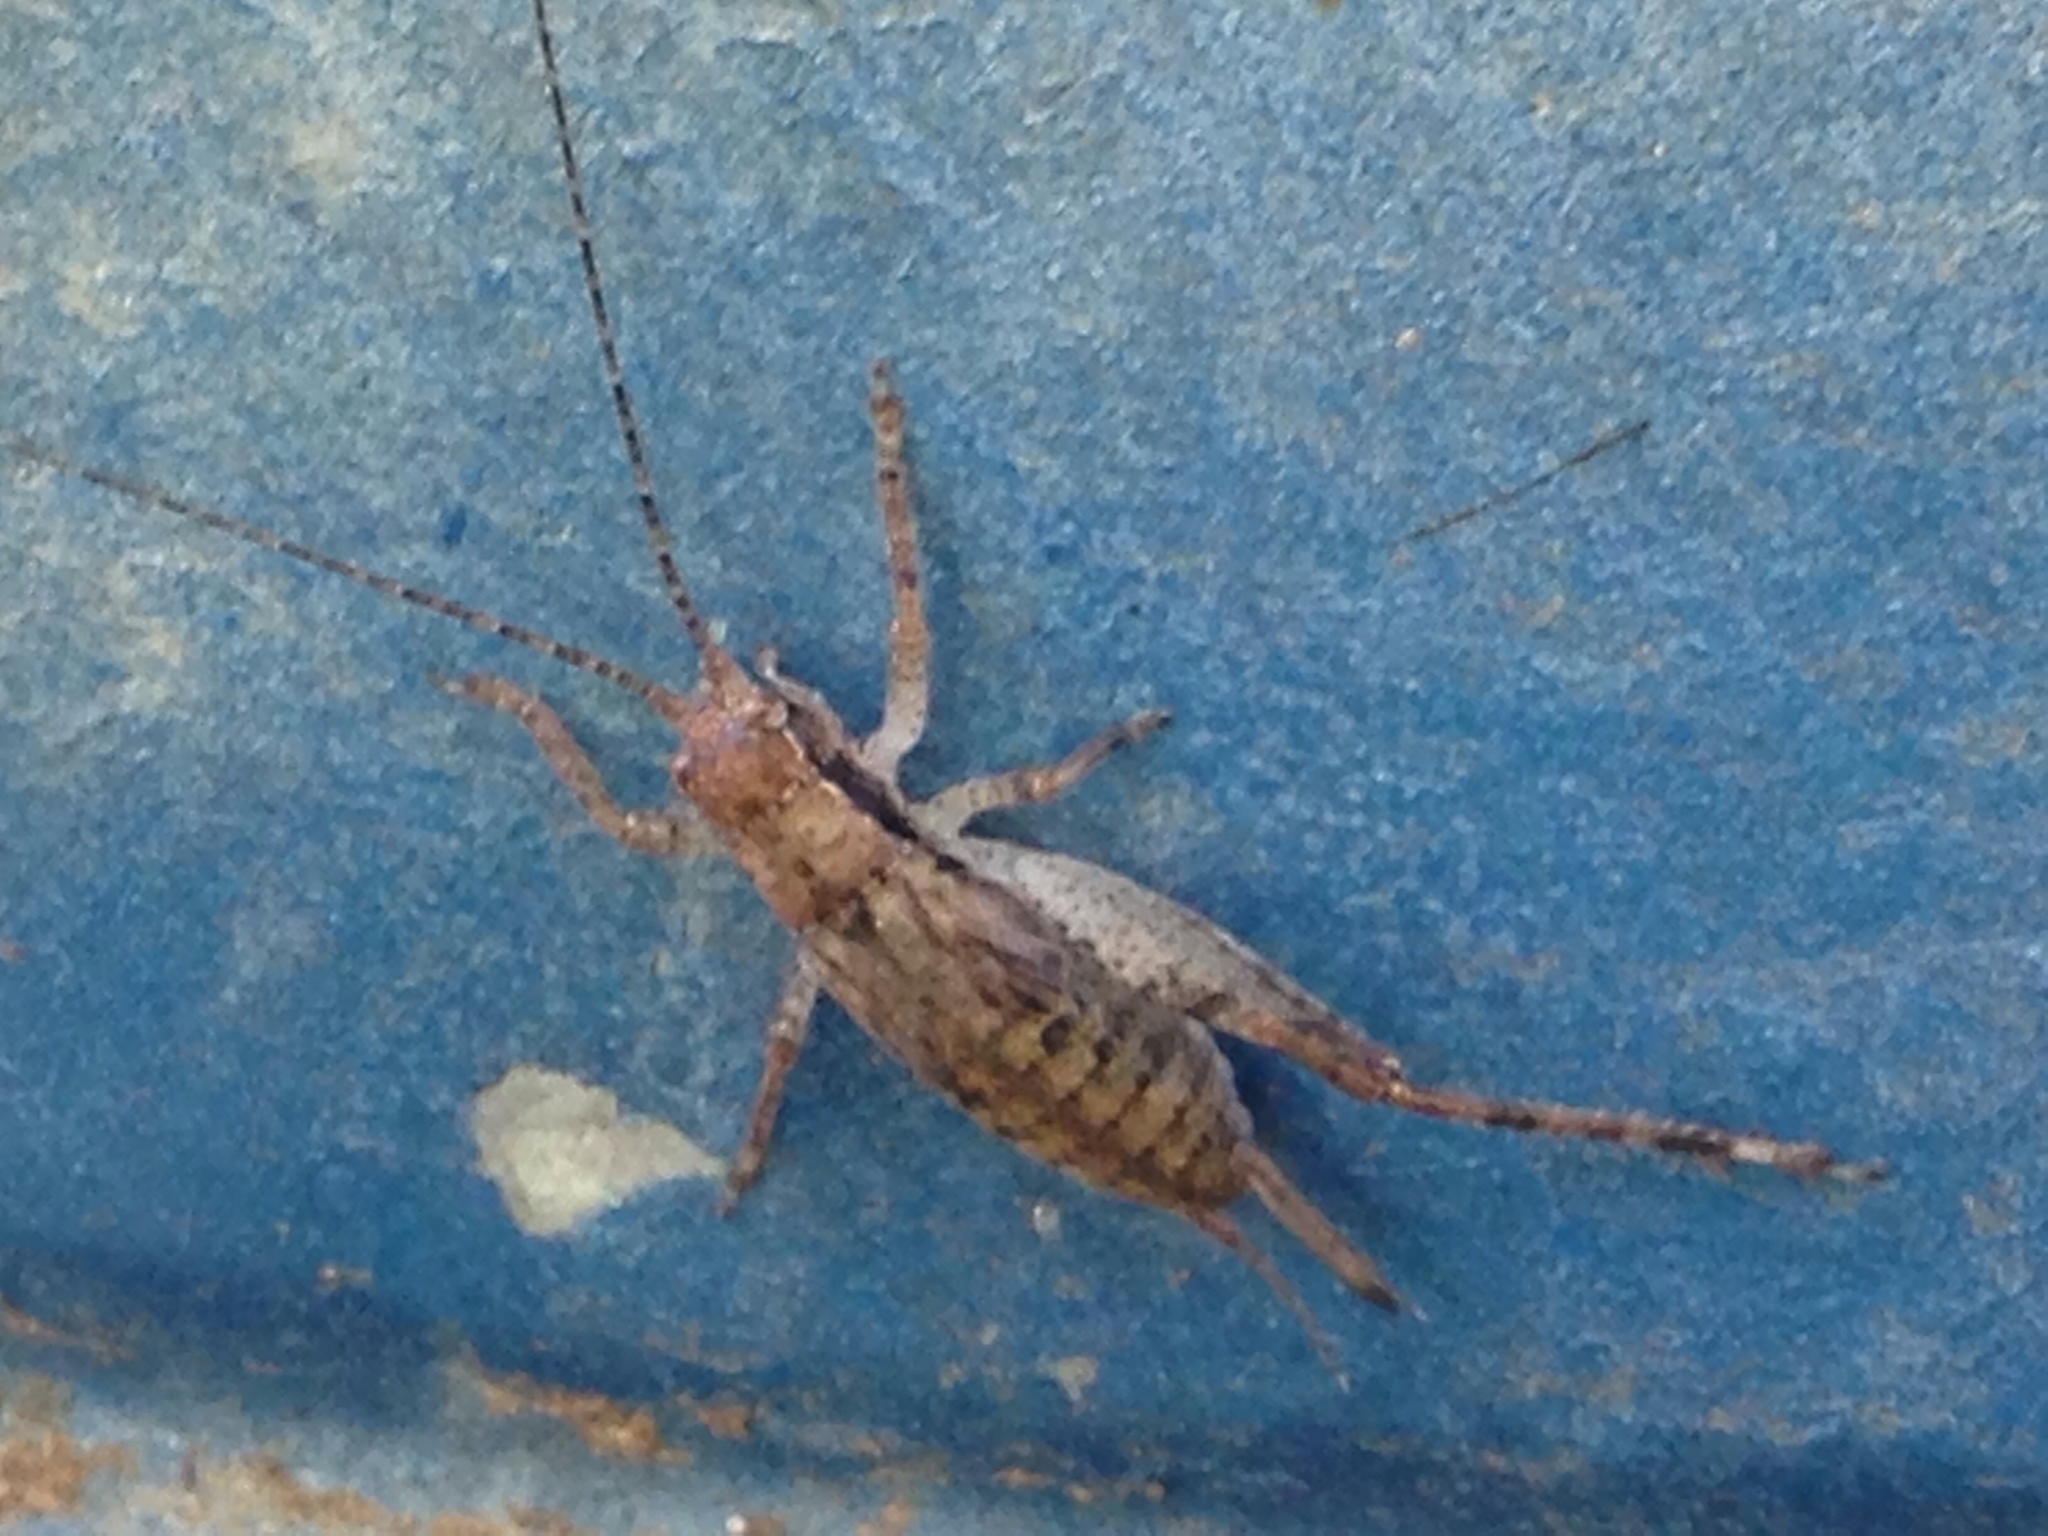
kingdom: Animalia
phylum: Arthropoda
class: Insecta
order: Orthoptera
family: Gryllidae
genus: Hapithus
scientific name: Hapithus saltator
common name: Jumping bush cricket
